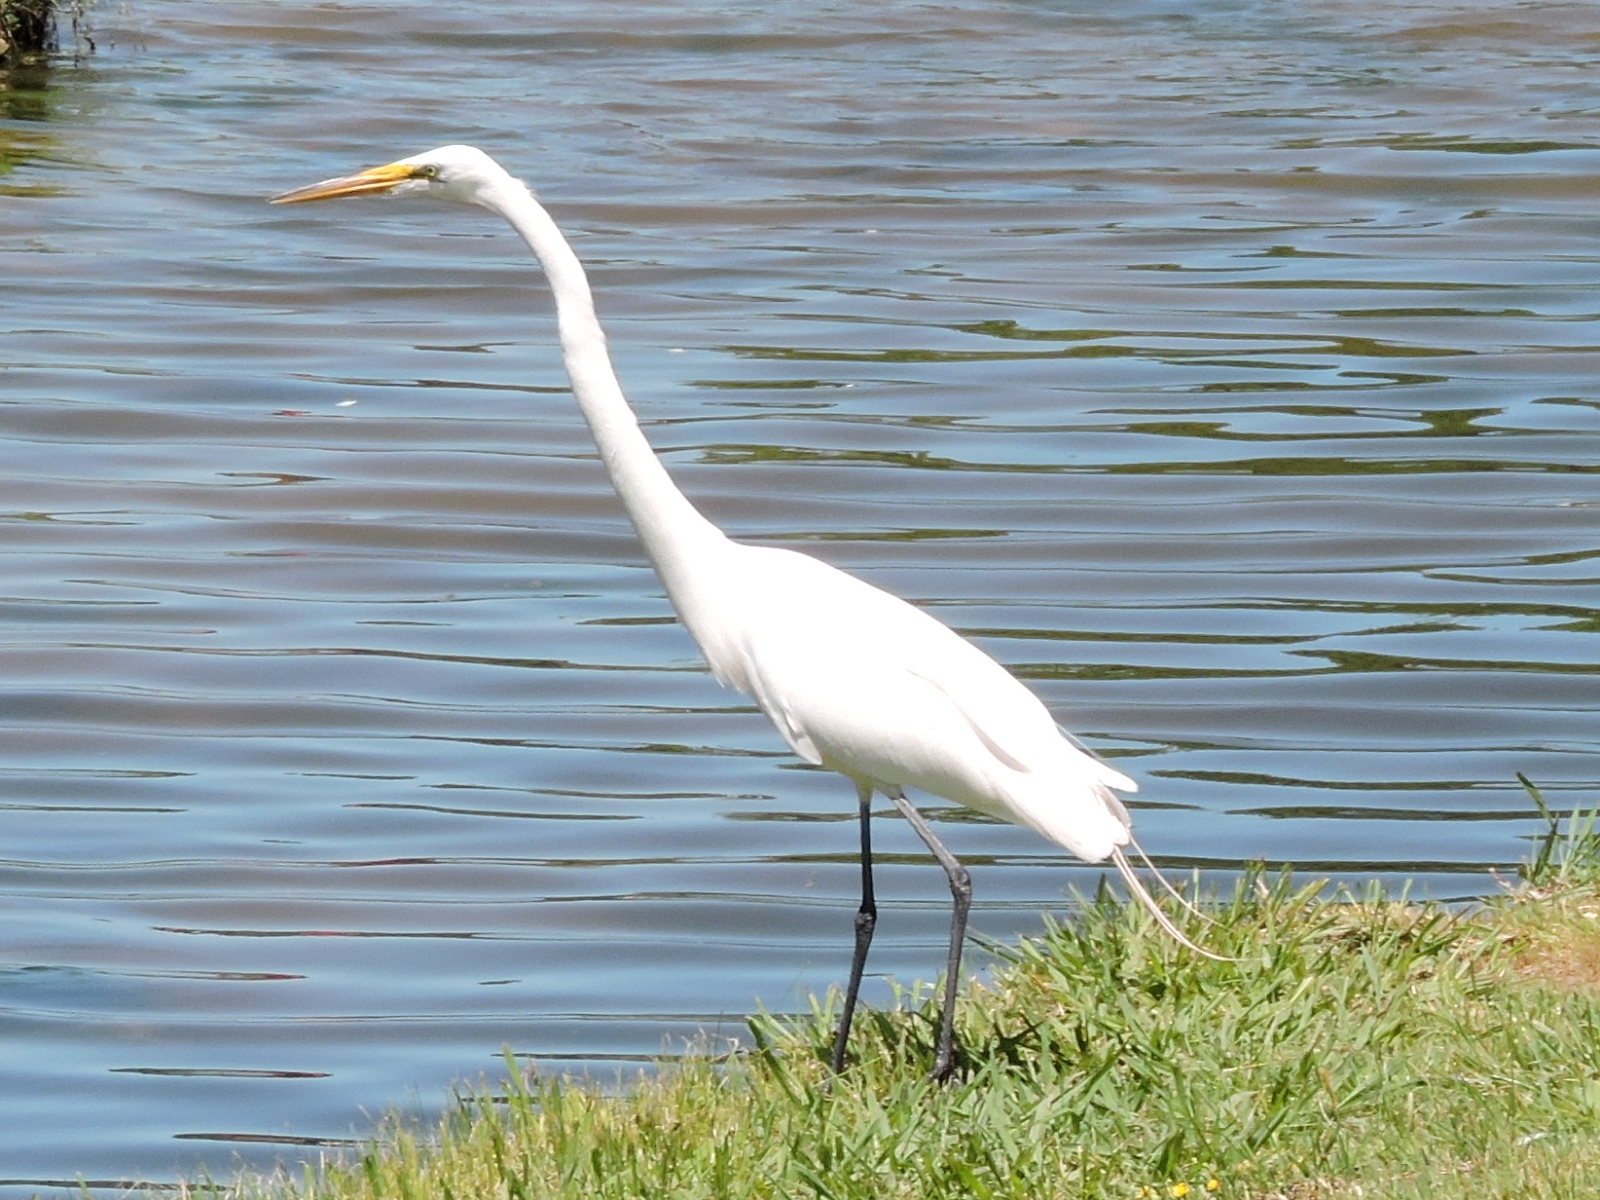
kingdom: Animalia
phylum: Chordata
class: Aves
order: Pelecaniformes
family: Ardeidae
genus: Ardea
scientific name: Ardea alba
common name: Great egret
